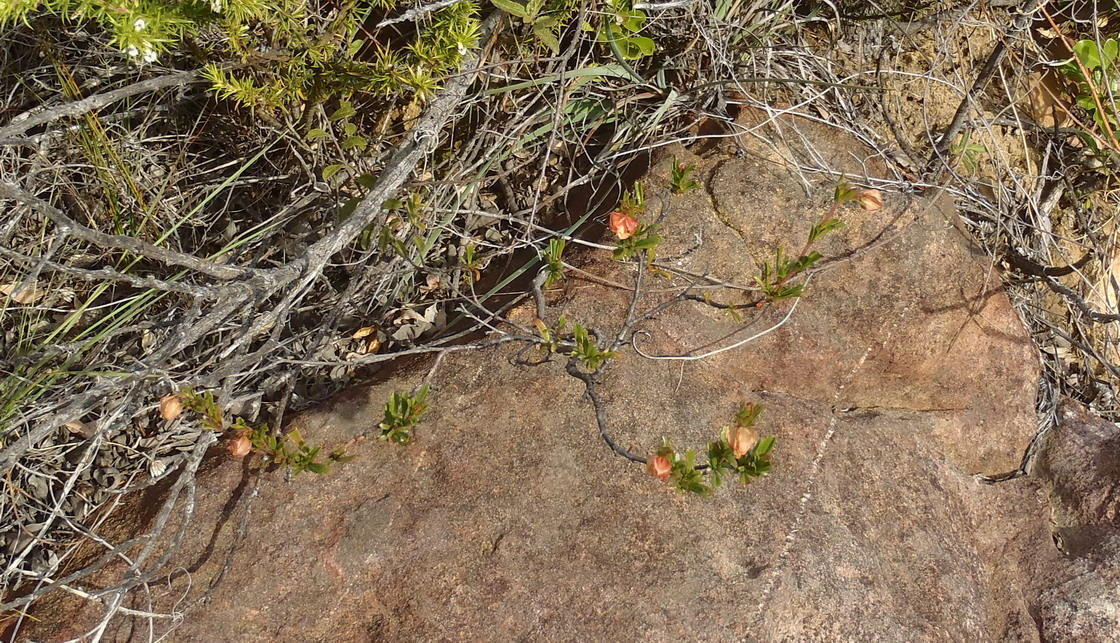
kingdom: Plantae
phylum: Tracheophyta
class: Magnoliopsida
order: Malvales
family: Malvaceae
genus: Hermannia
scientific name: Hermannia angularis
